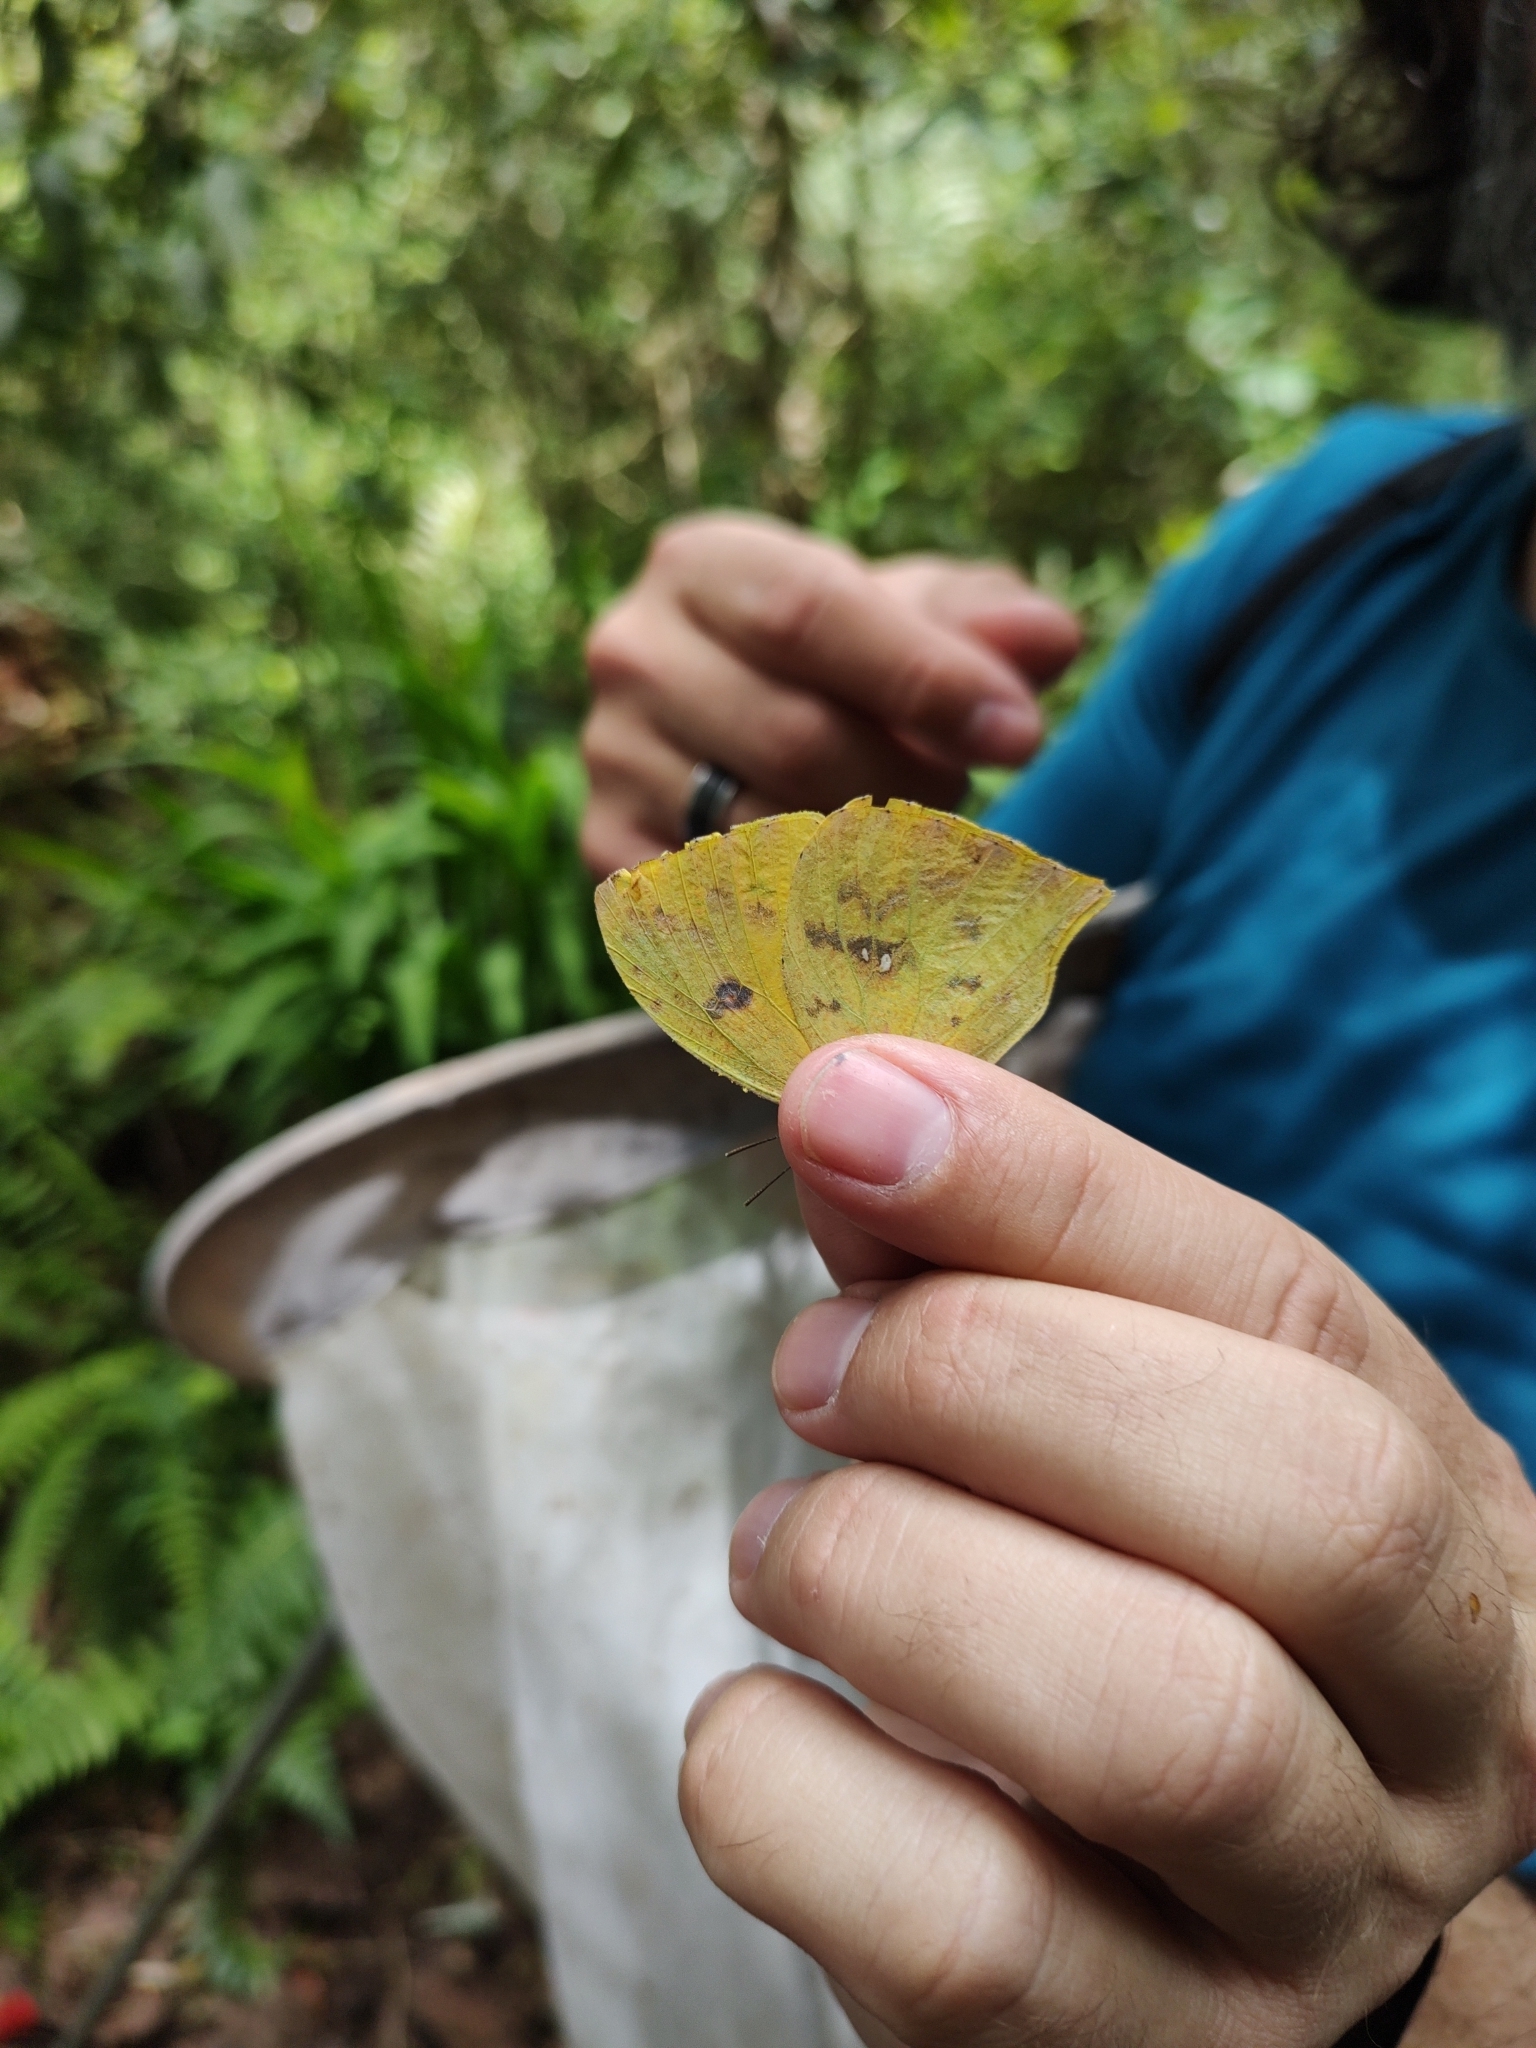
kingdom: Animalia
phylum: Arthropoda
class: Insecta
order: Lepidoptera
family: Pieridae
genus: Phoebis
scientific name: Phoebis neocypris
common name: Tailed sulphur
